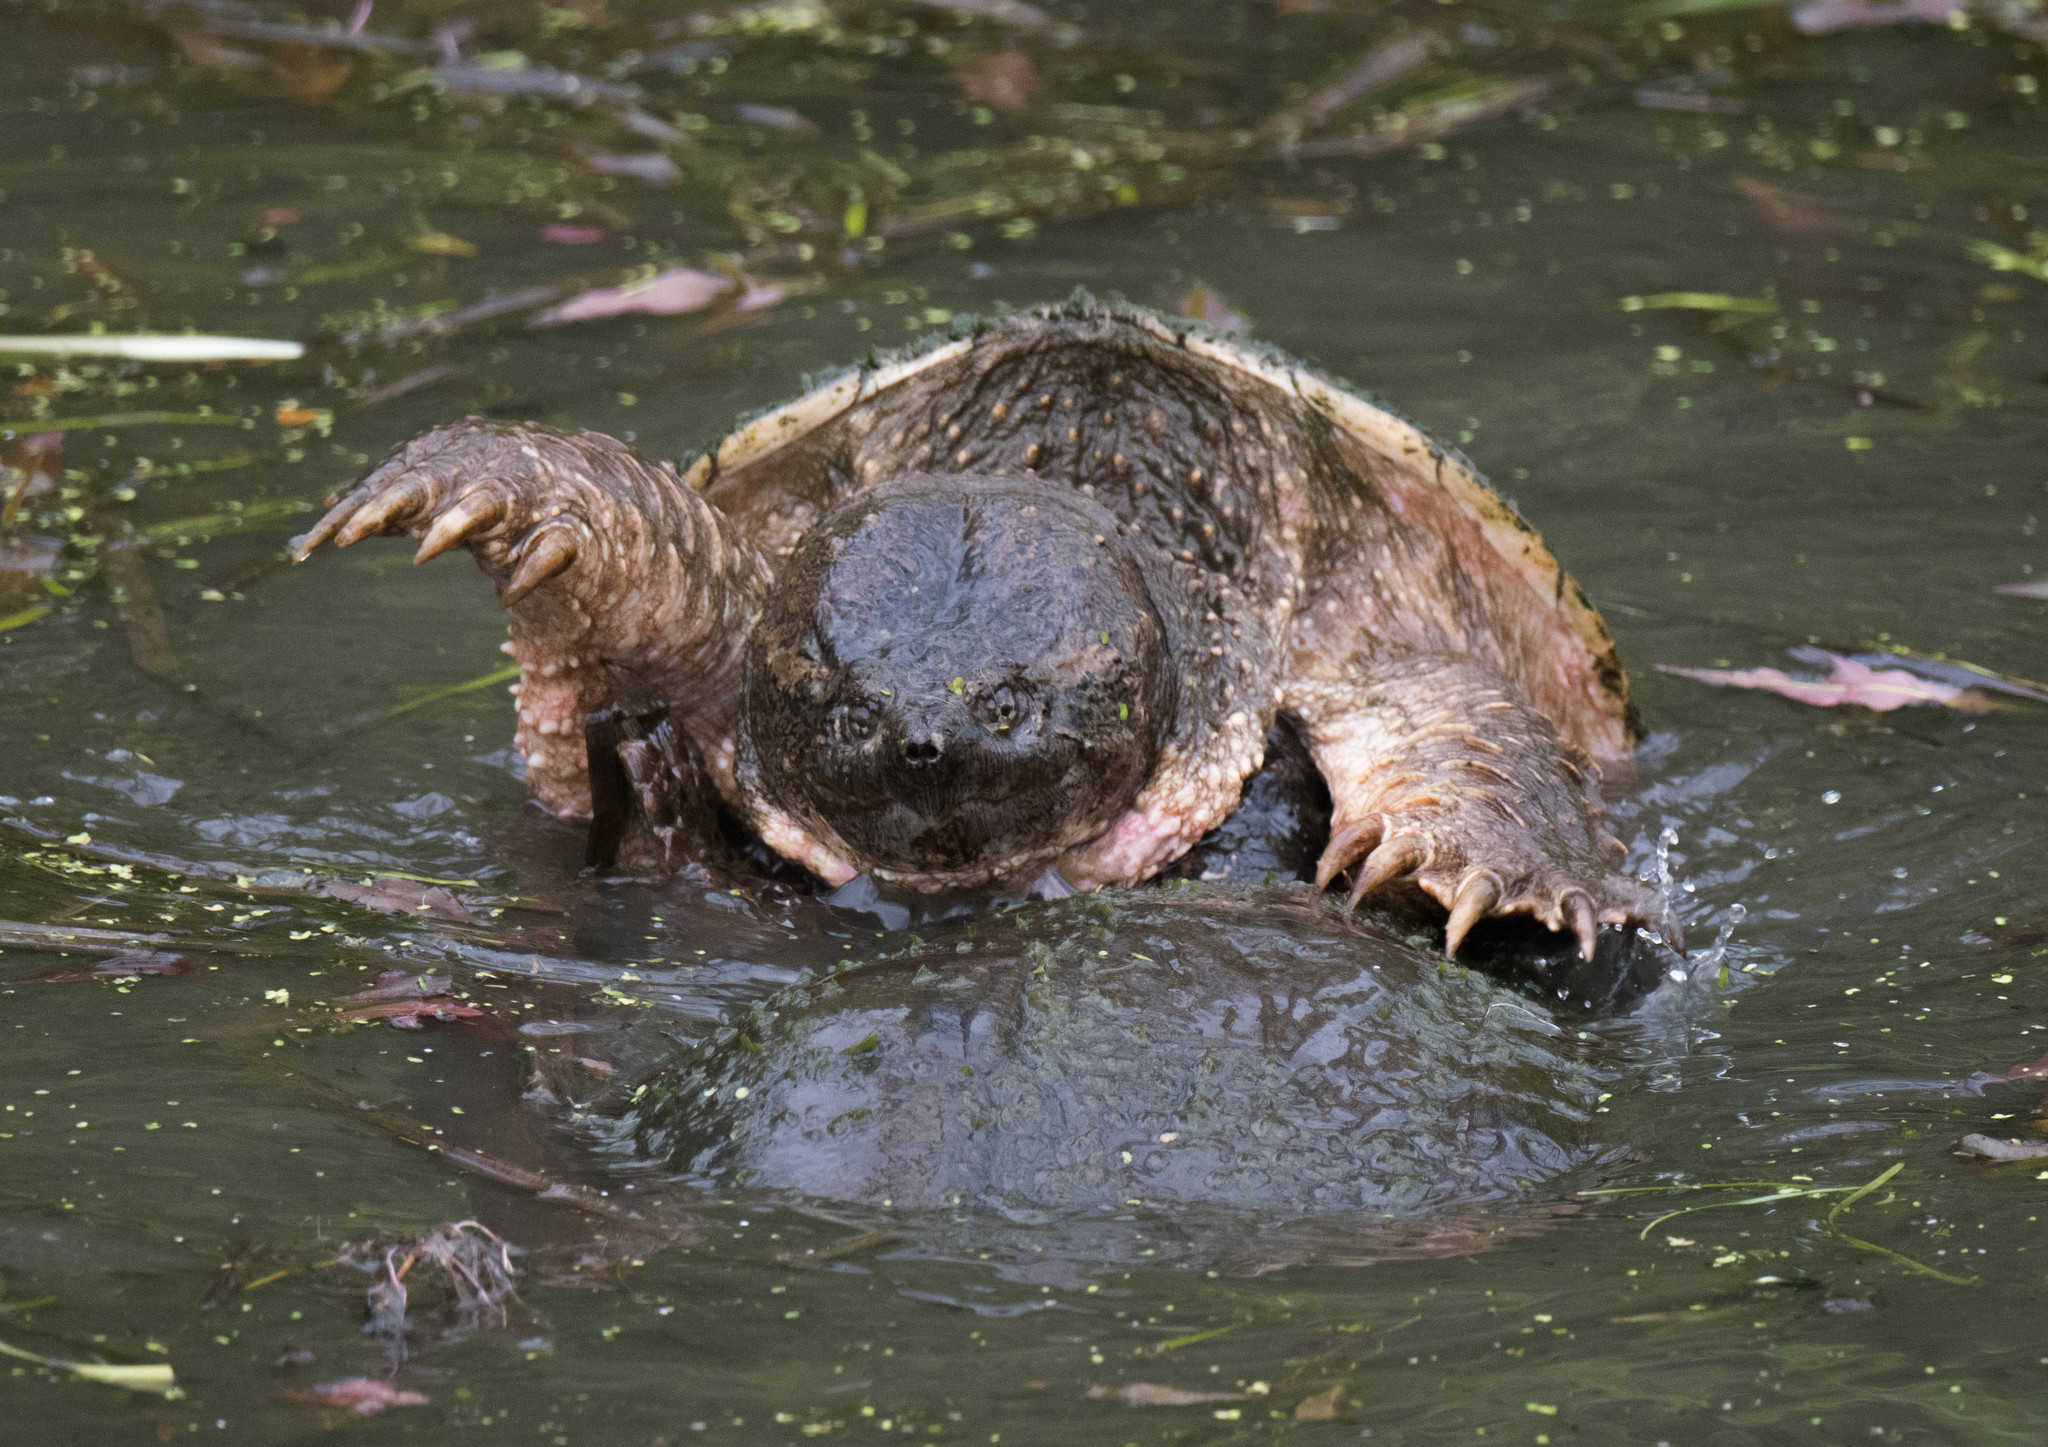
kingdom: Animalia
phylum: Chordata
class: Testudines
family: Chelydridae
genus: Chelydra
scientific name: Chelydra serpentina
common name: Common snapping turtle
